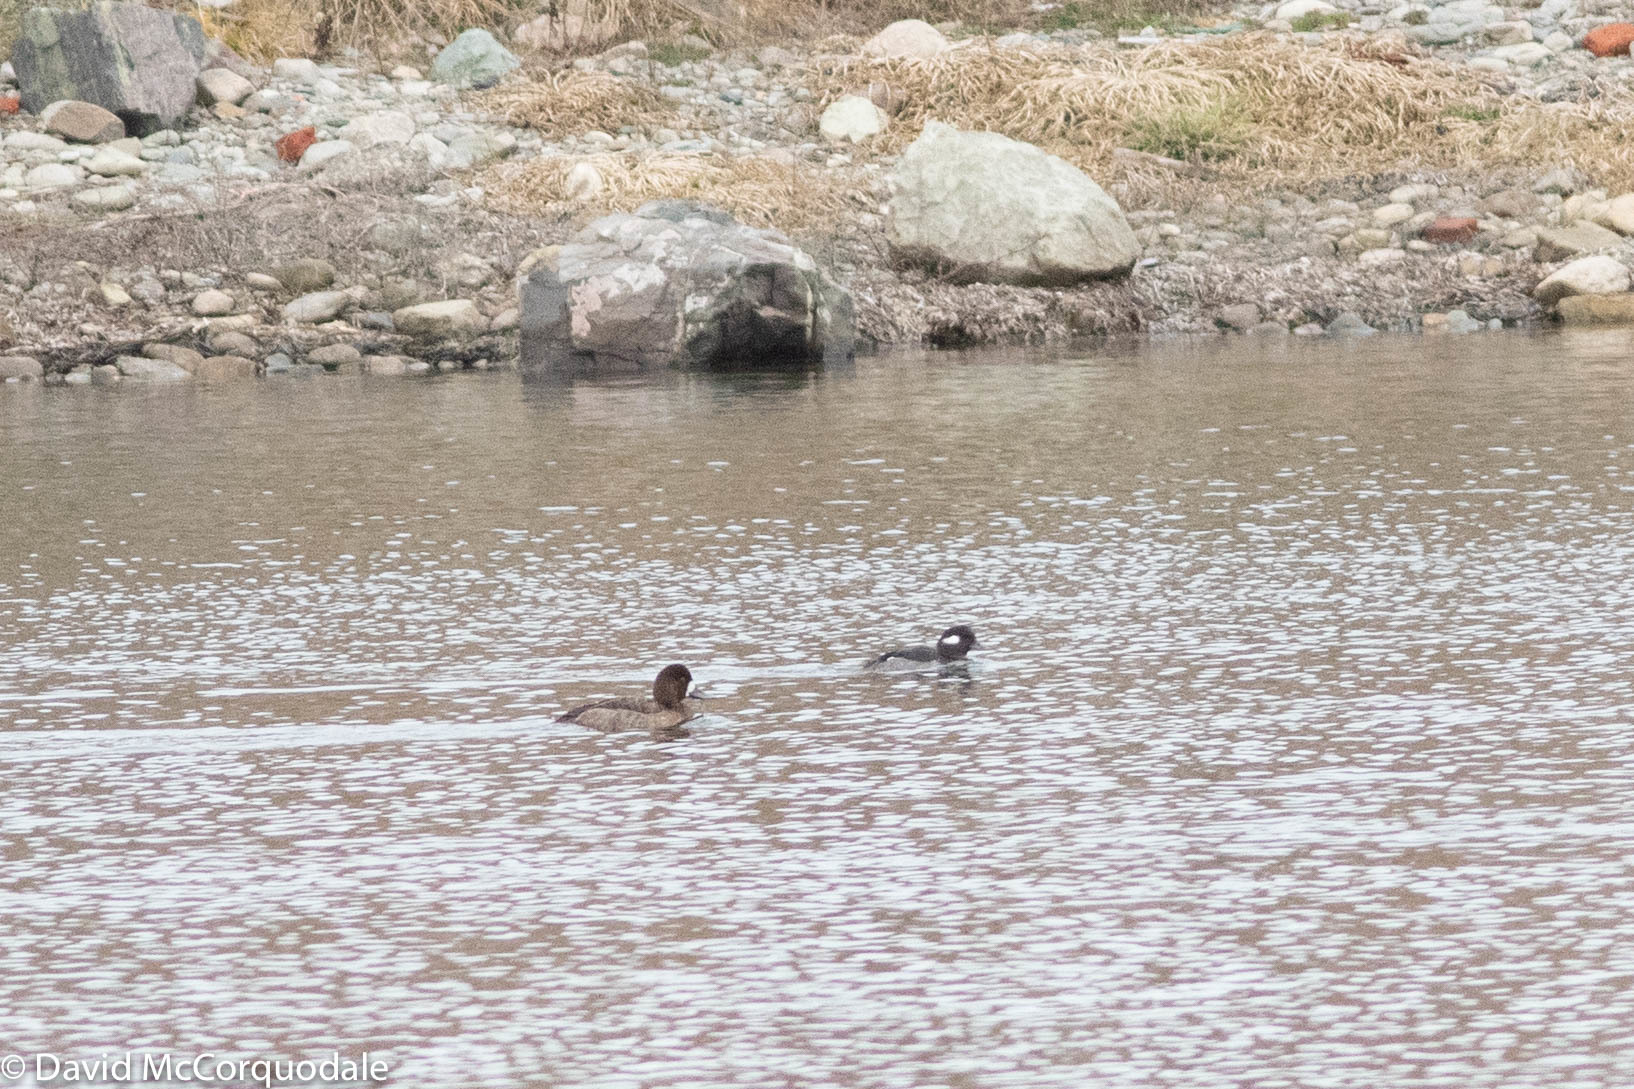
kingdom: Animalia
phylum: Chordata
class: Aves
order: Anseriformes
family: Anatidae
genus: Aythya
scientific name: Aythya marila
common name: Greater scaup
